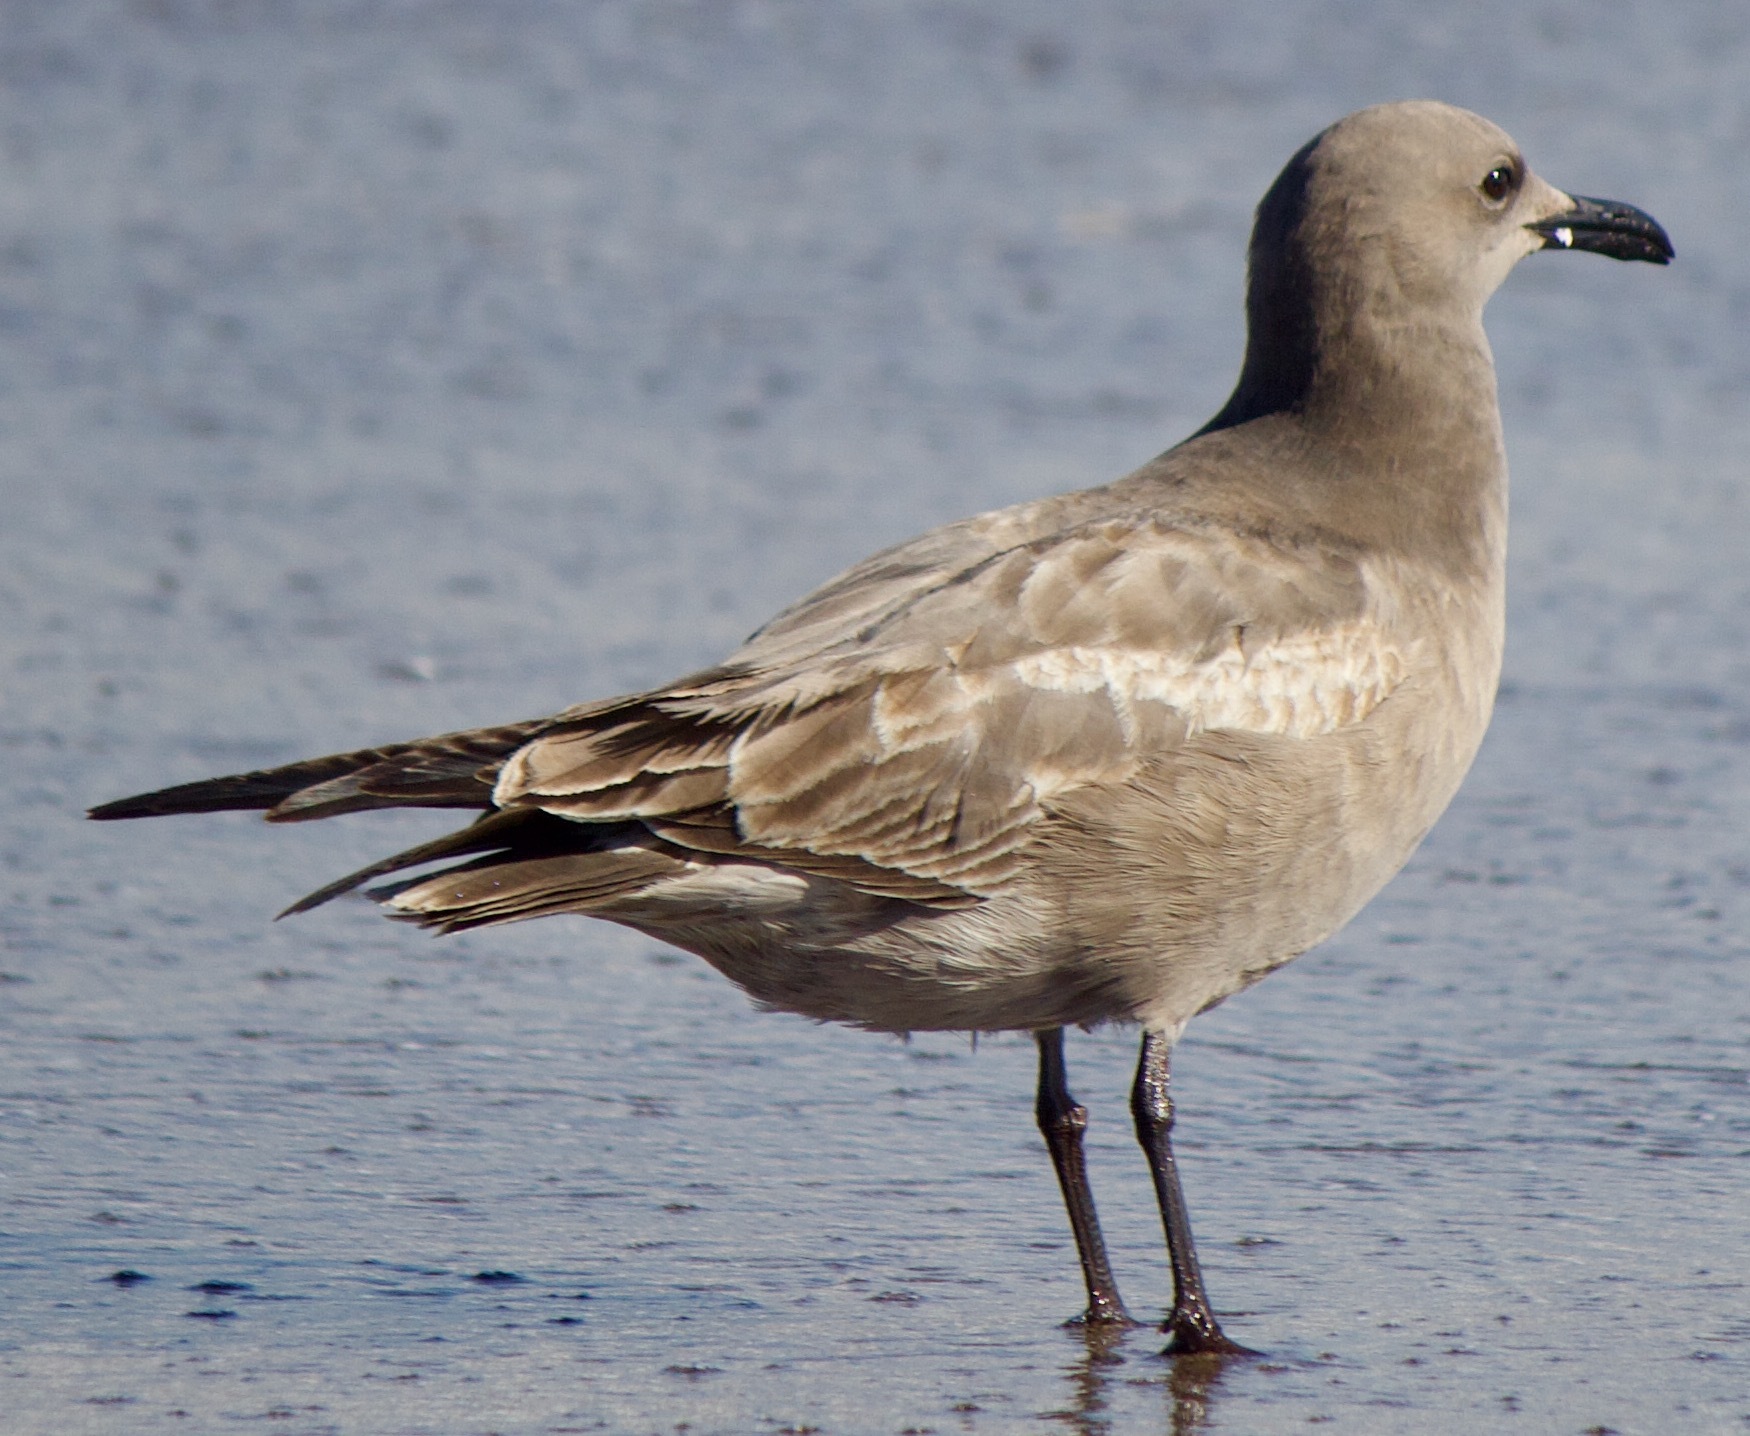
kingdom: Animalia
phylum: Chordata
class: Aves
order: Charadriiformes
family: Laridae
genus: Leucophaeus
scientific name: Leucophaeus modestus
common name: Gray gull
